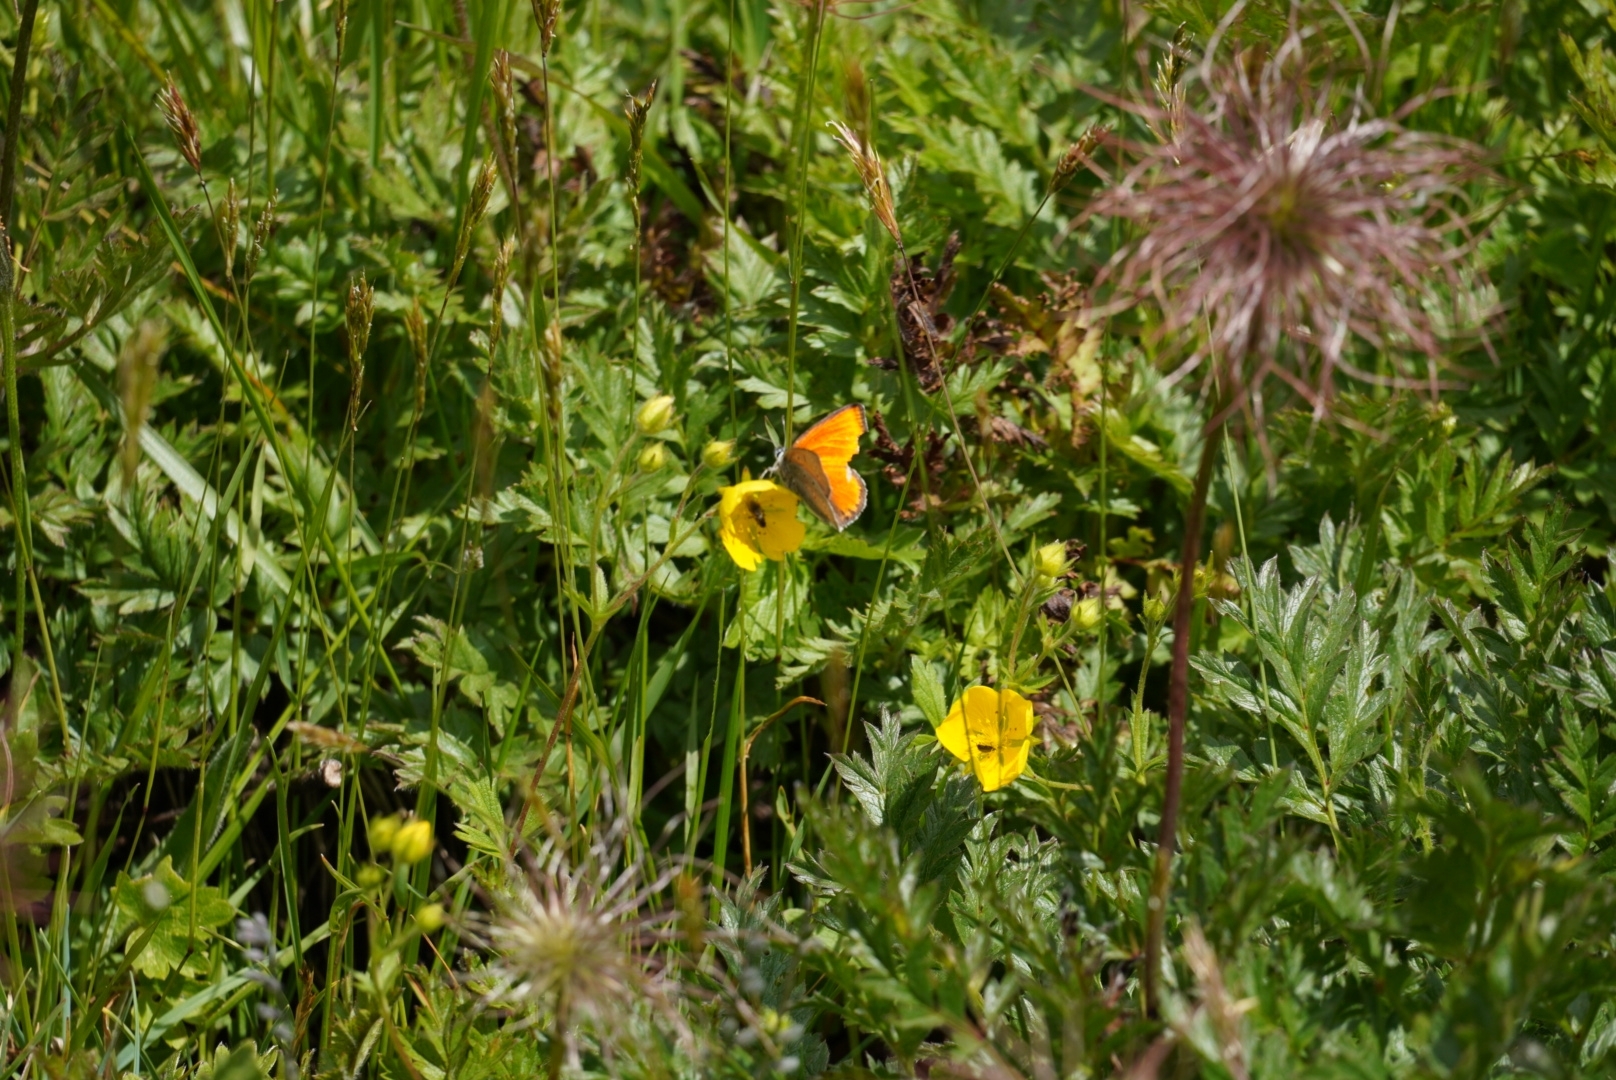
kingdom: Animalia
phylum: Arthropoda
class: Insecta
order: Lepidoptera
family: Lycaenidae
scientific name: Lycaenidae
